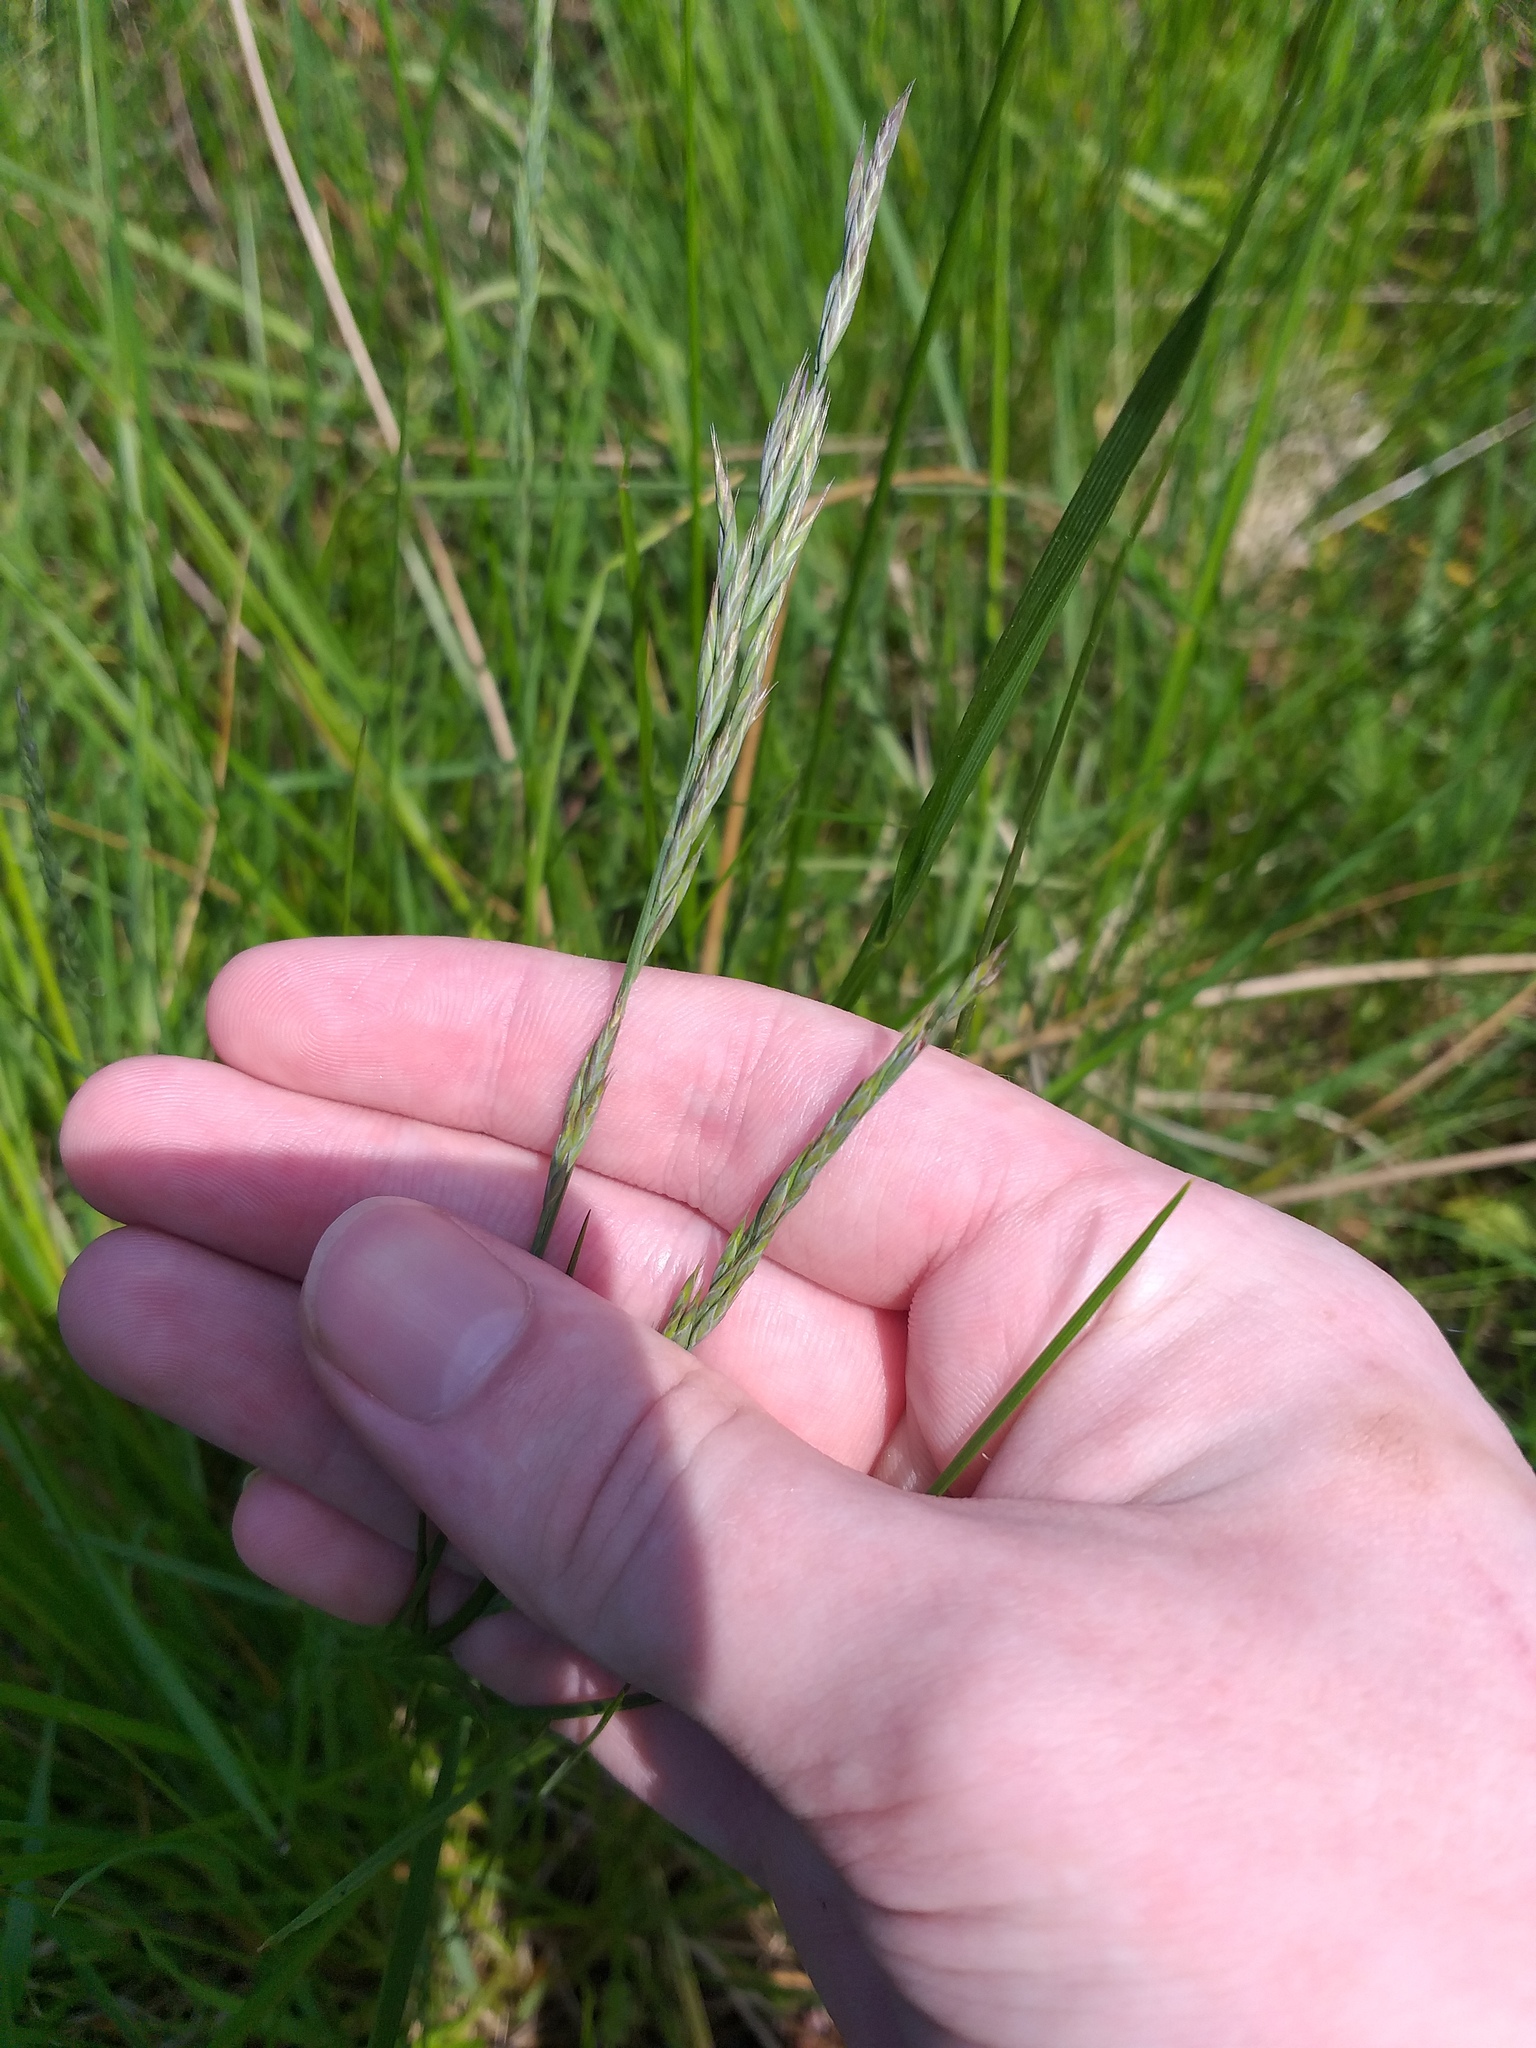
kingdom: Plantae
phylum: Tracheophyta
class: Liliopsida
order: Poales
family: Poaceae
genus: Festuca
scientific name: Festuca rubra
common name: Red fescue
